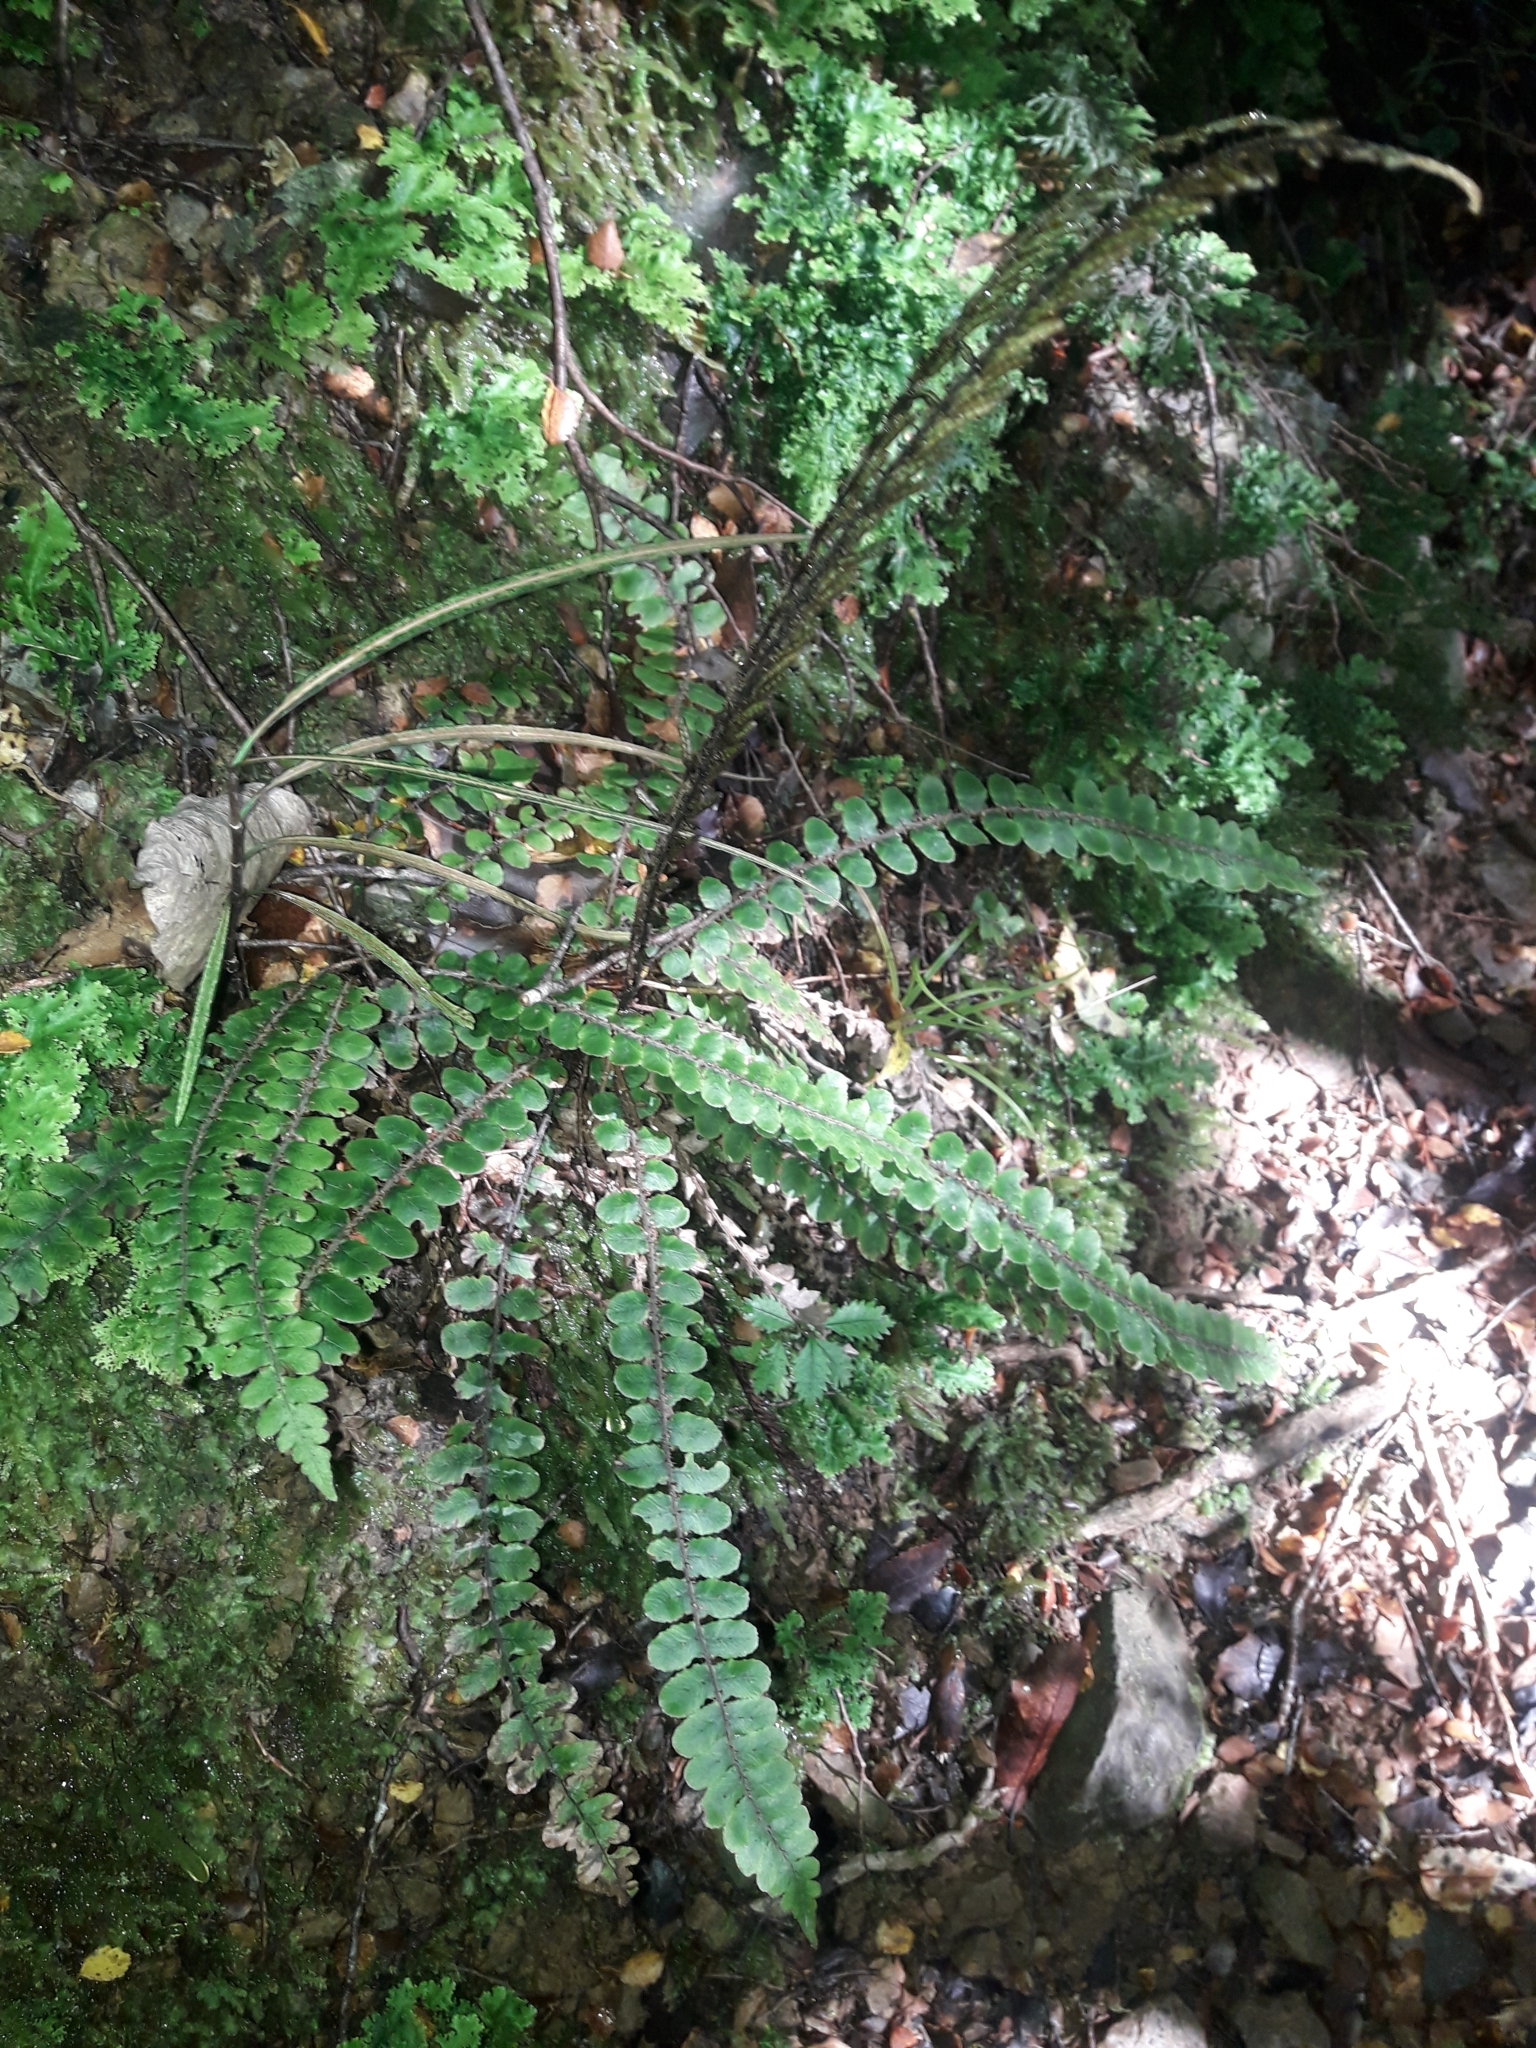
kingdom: Plantae
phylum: Tracheophyta
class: Polypodiopsida
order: Polypodiales
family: Blechnaceae
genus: Cranfillia
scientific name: Cranfillia fluviatilis
